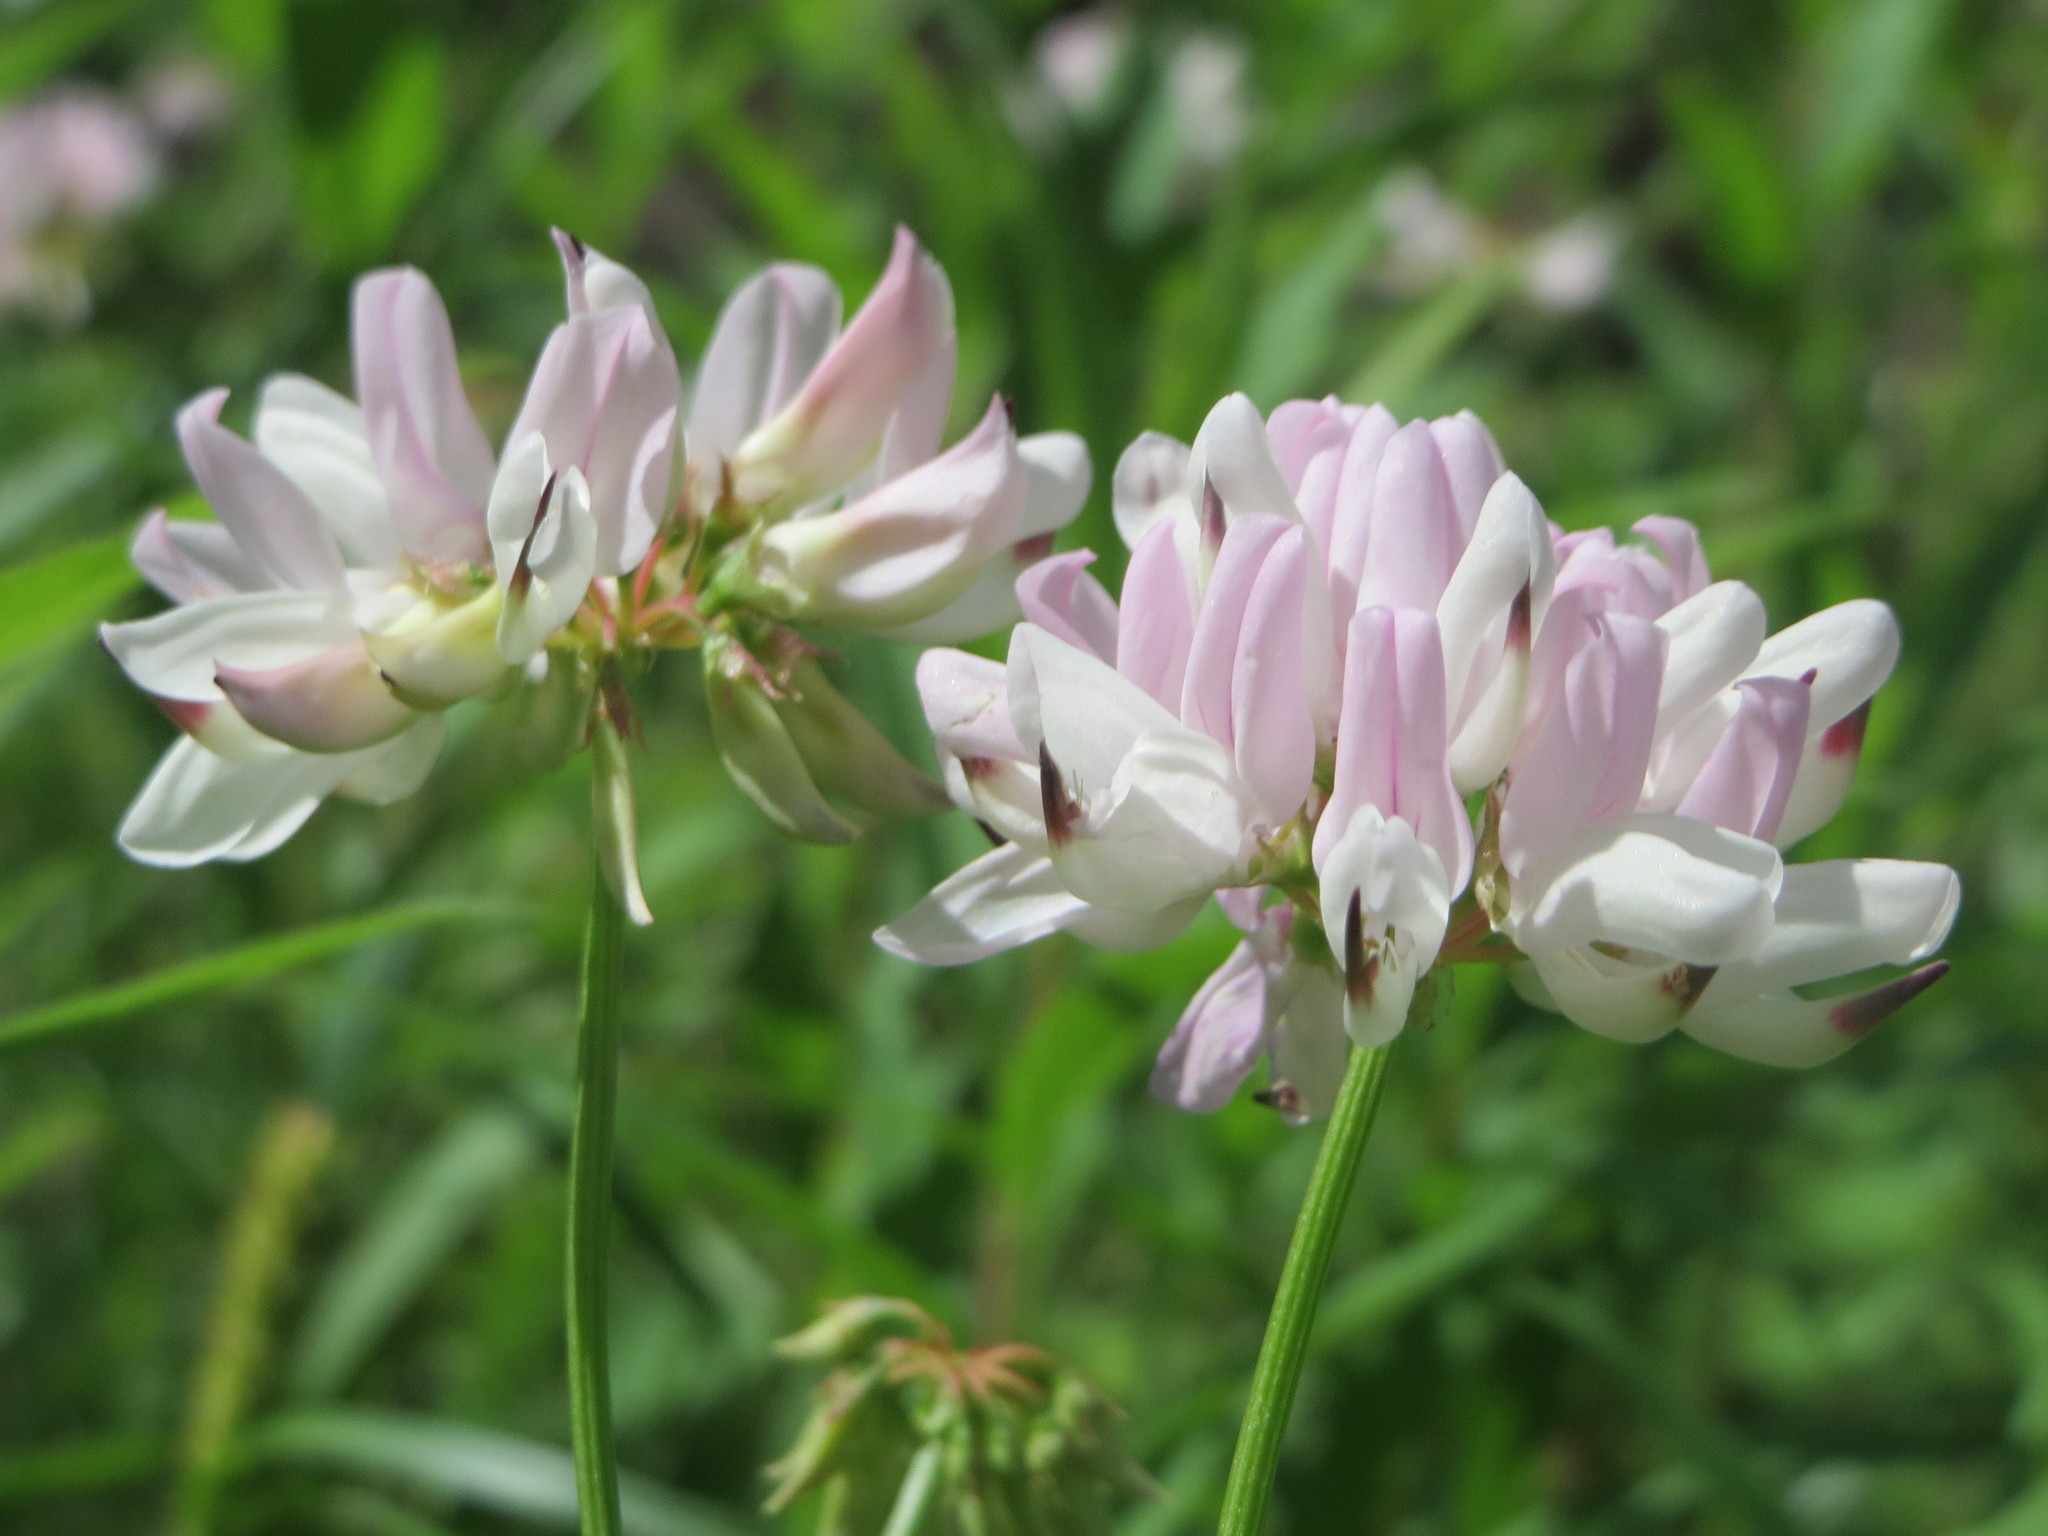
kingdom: Plantae
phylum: Tracheophyta
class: Magnoliopsida
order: Fabales
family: Fabaceae
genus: Coronilla
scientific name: Coronilla varia
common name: Crownvetch
